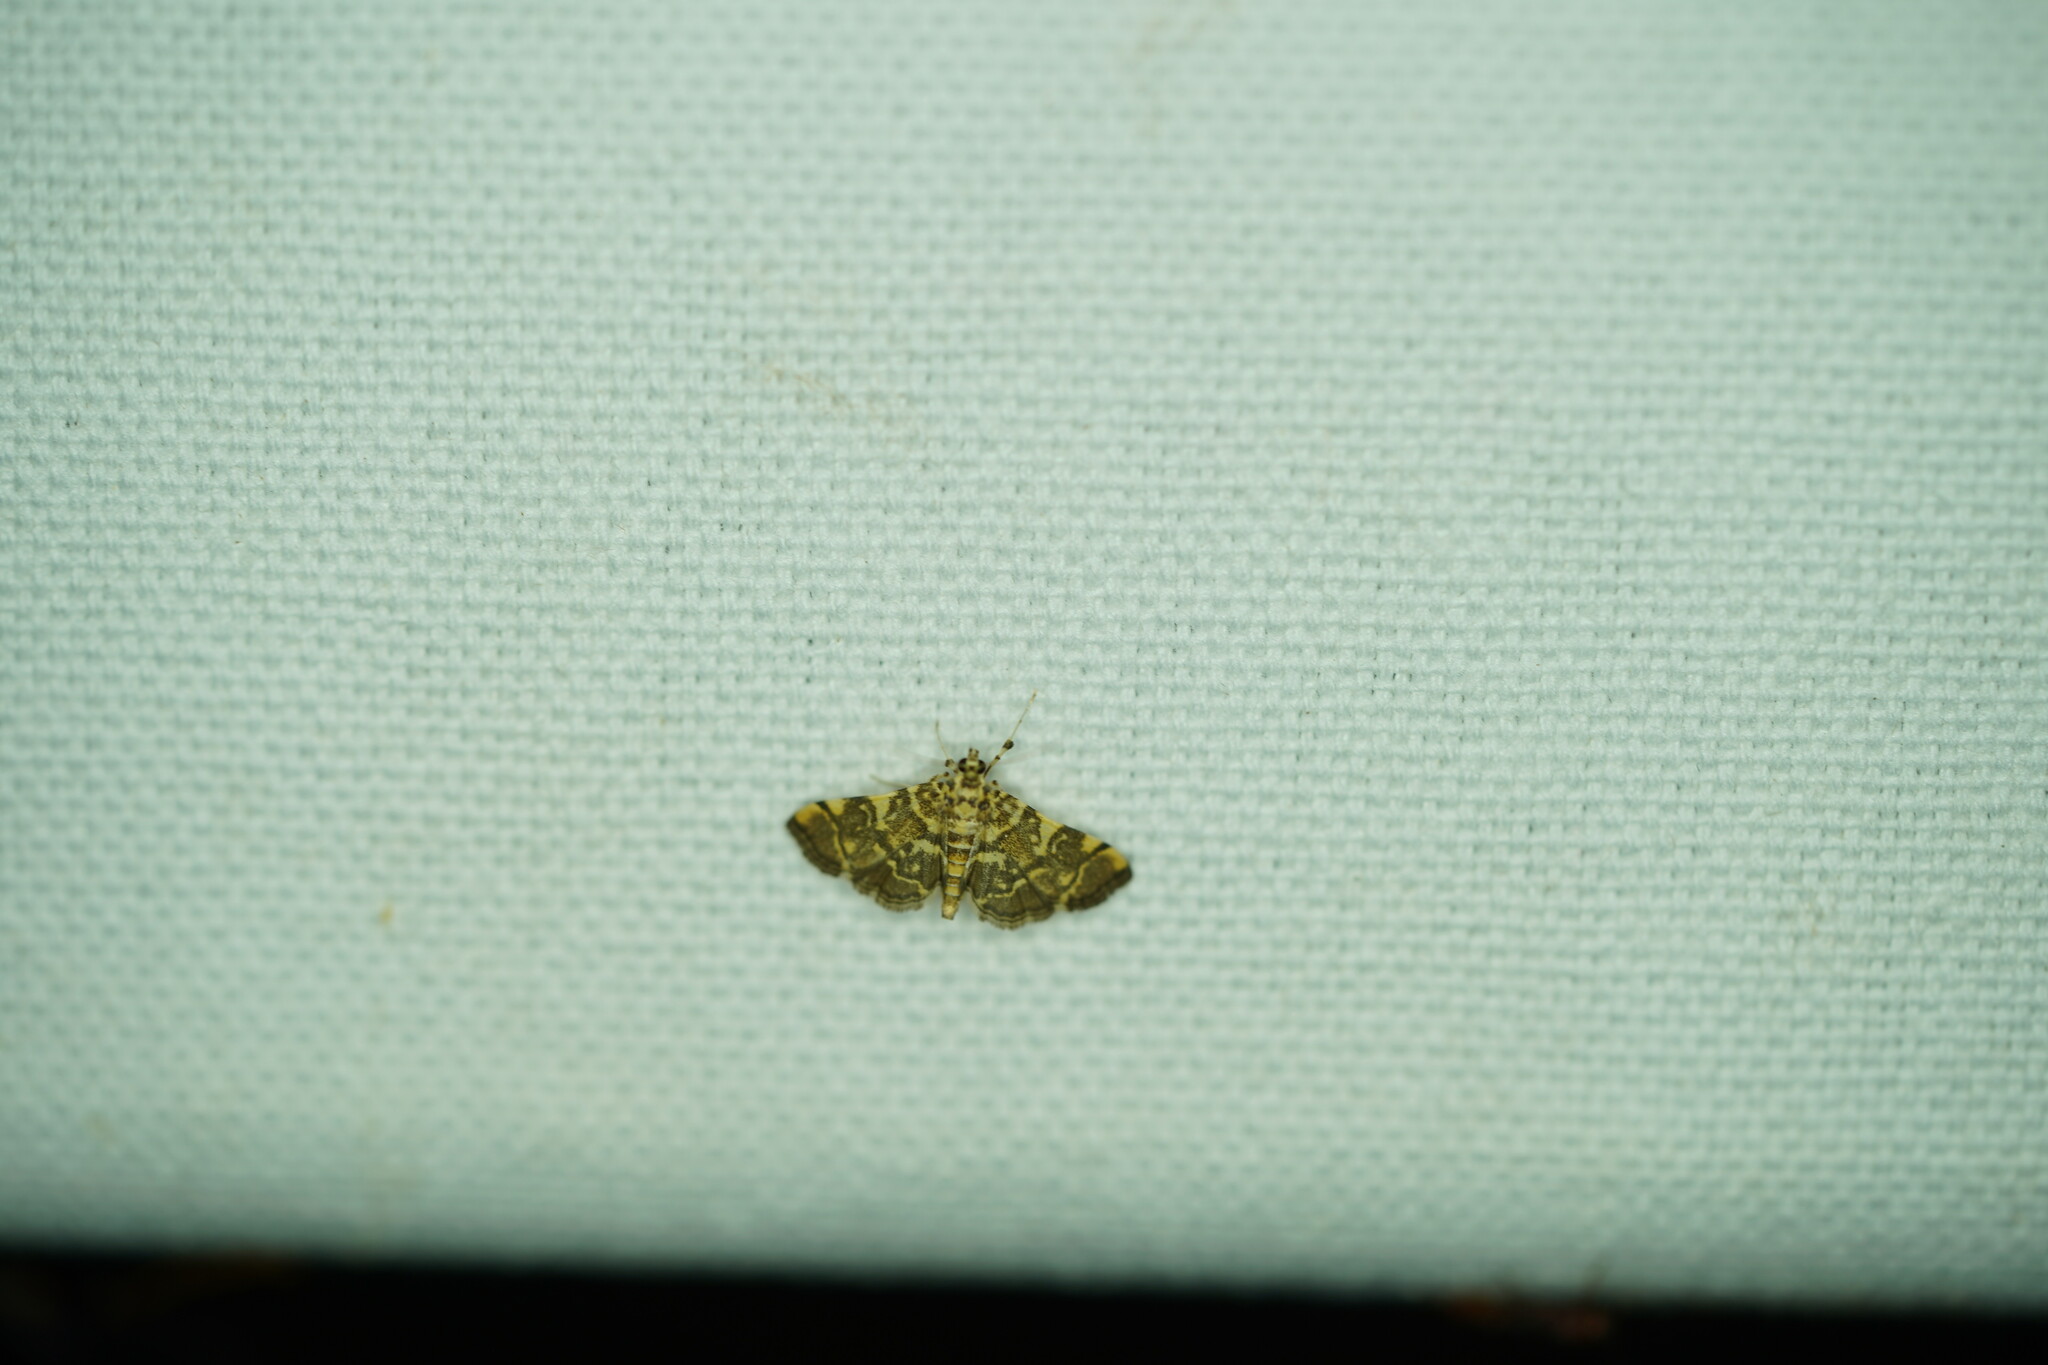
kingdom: Animalia
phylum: Arthropoda
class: Insecta
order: Lepidoptera
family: Crambidae
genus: Apogeshna
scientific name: Apogeshna stenialis
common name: Checkered apogeshna moth
